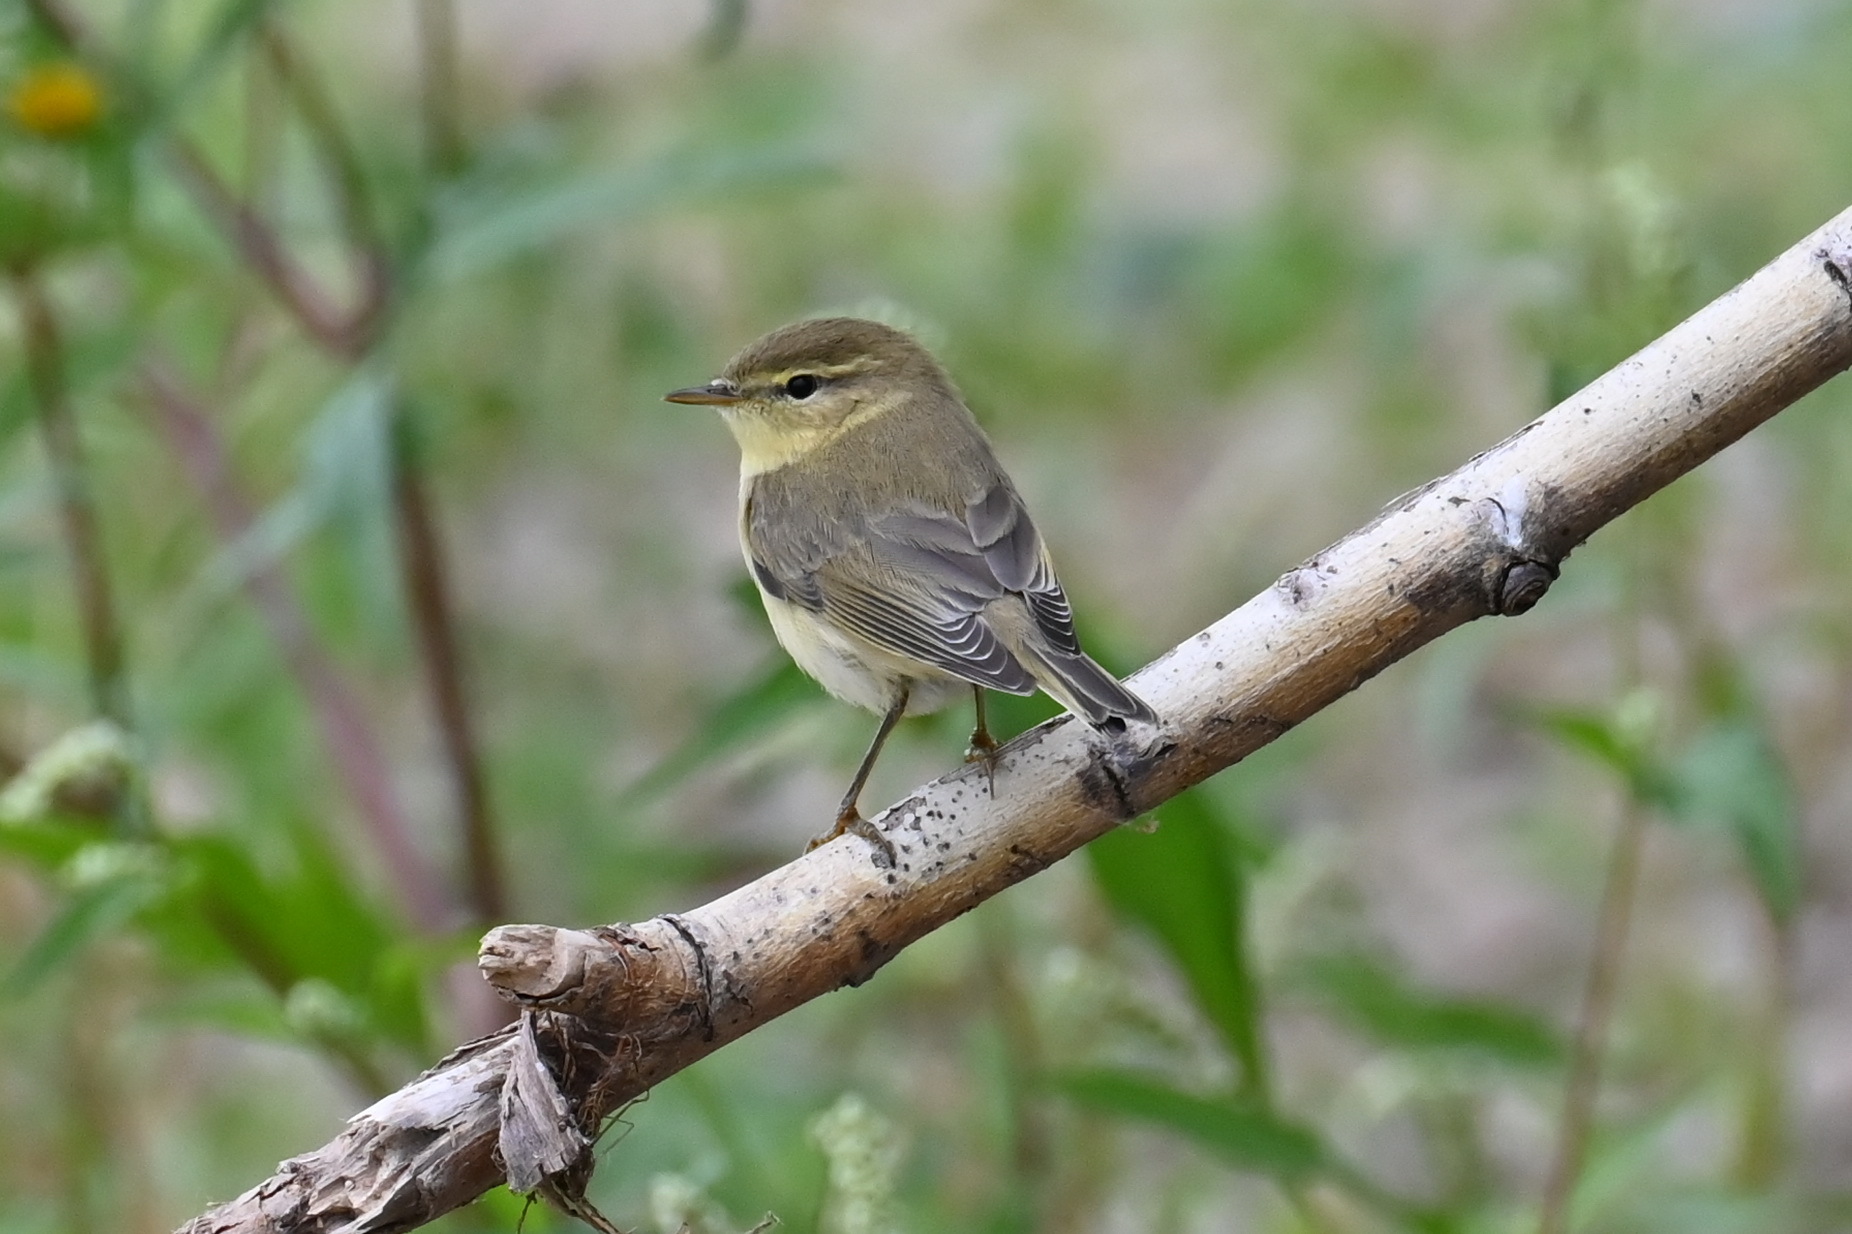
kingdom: Animalia
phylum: Chordata
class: Aves
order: Passeriformes
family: Phylloscopidae
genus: Phylloscopus
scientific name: Phylloscopus trochilus
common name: Willow warbler
